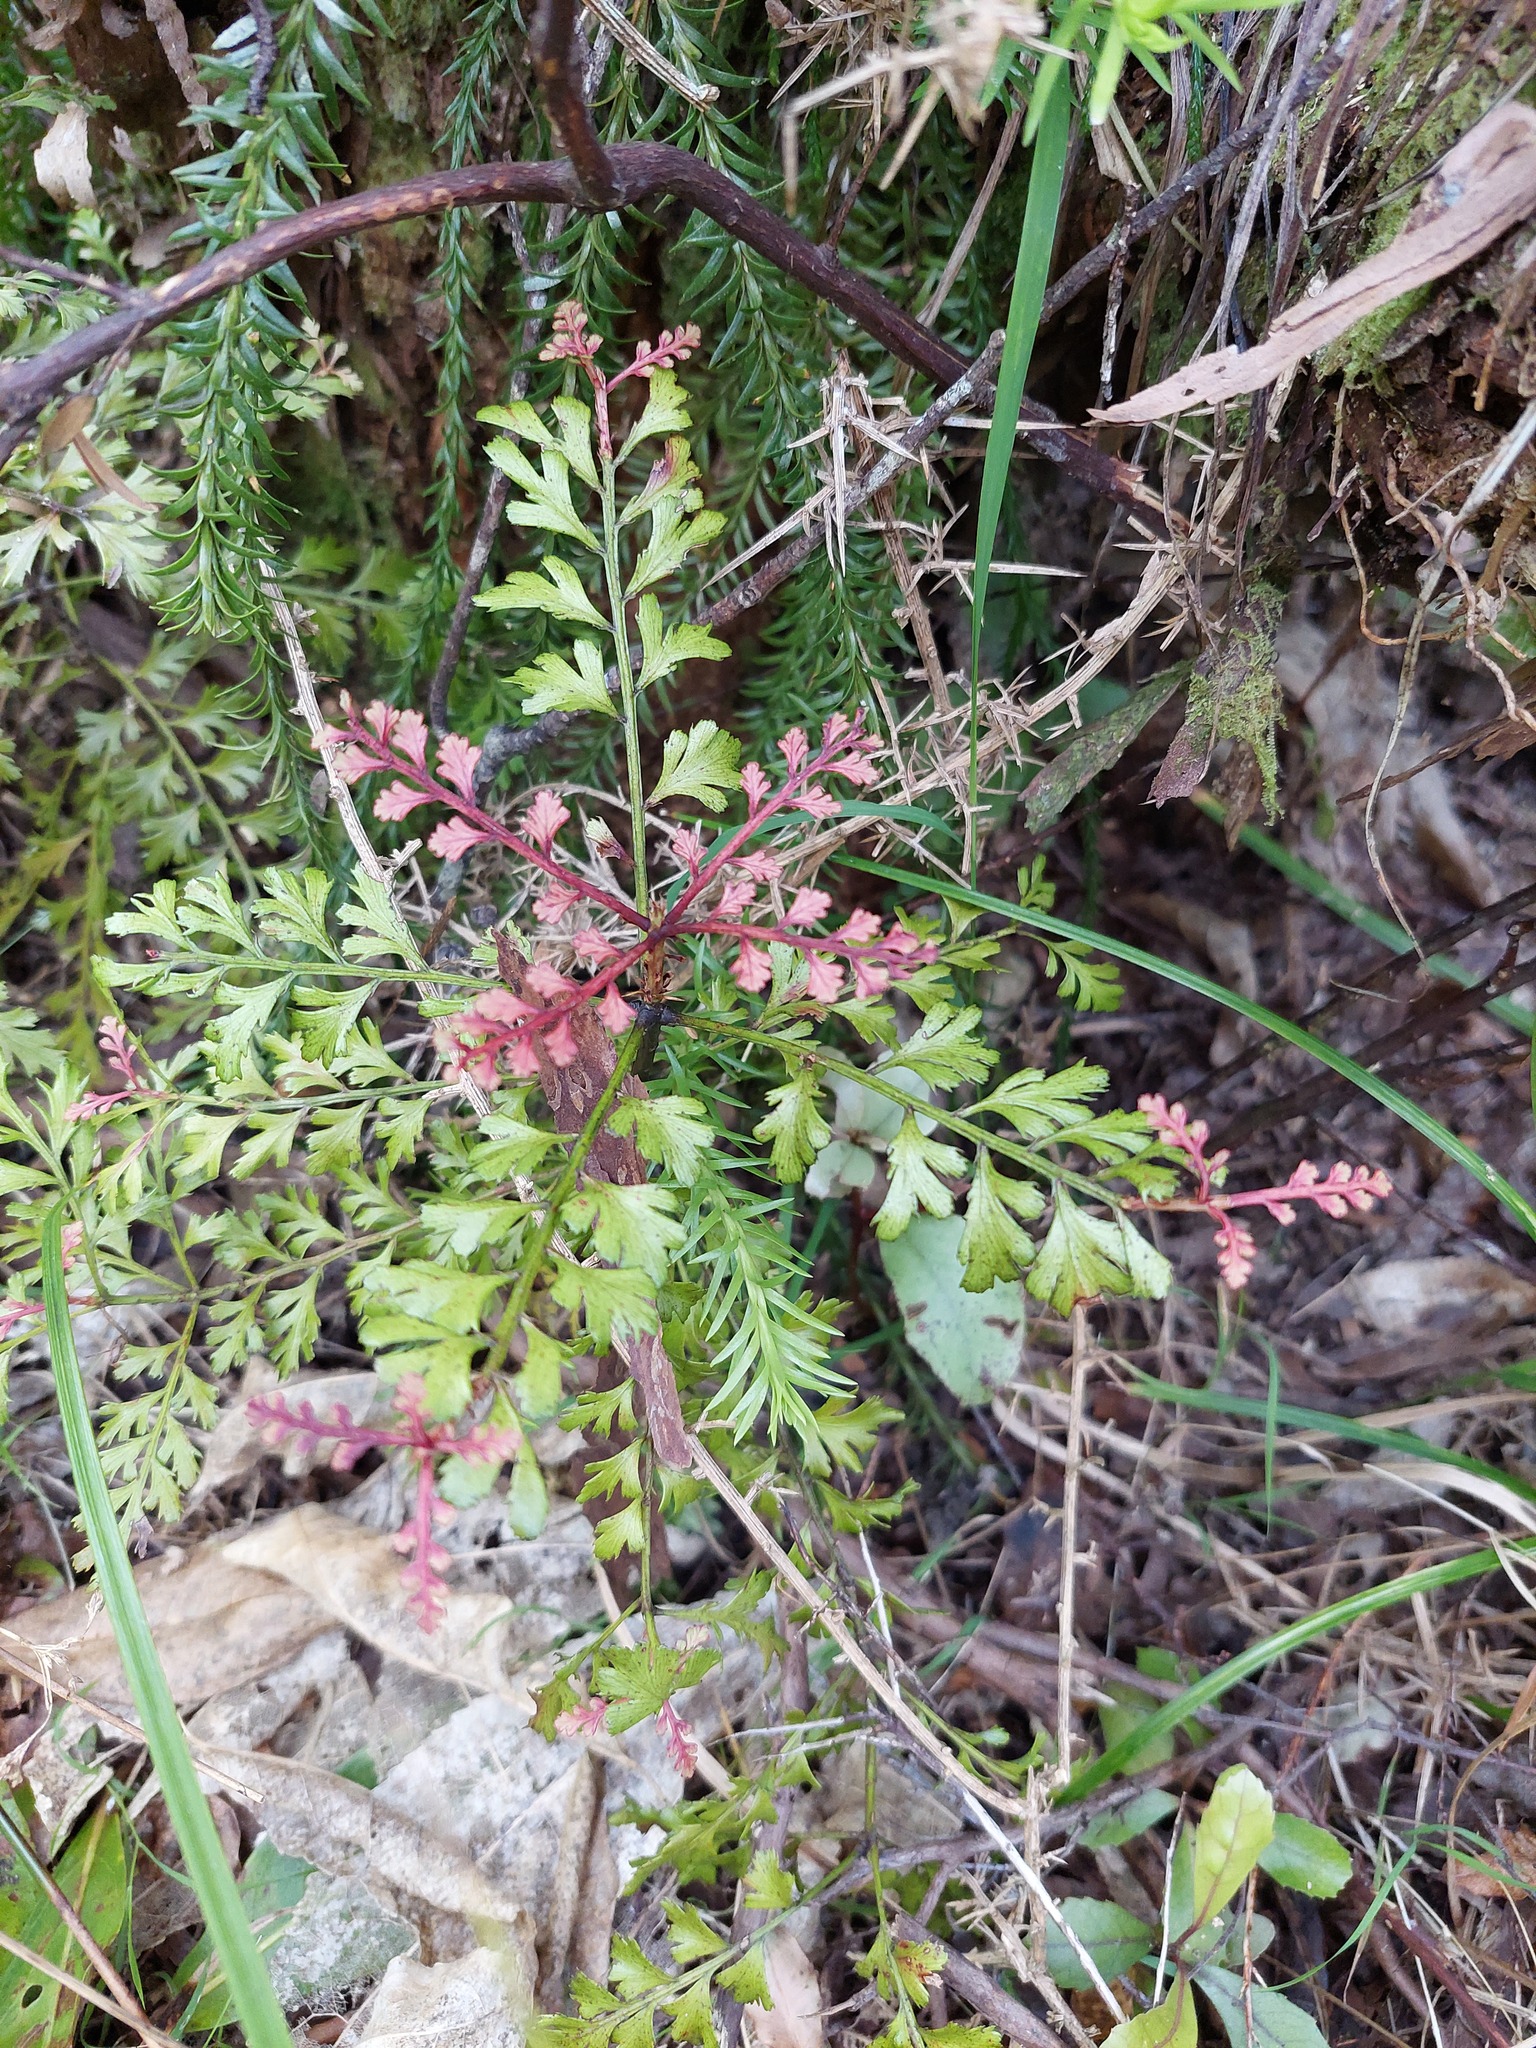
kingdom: Plantae
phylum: Tracheophyta
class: Pinopsida
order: Pinales
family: Phyllocladaceae
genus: Phyllocladus
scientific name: Phyllocladus trichomanoides
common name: Celery pine
